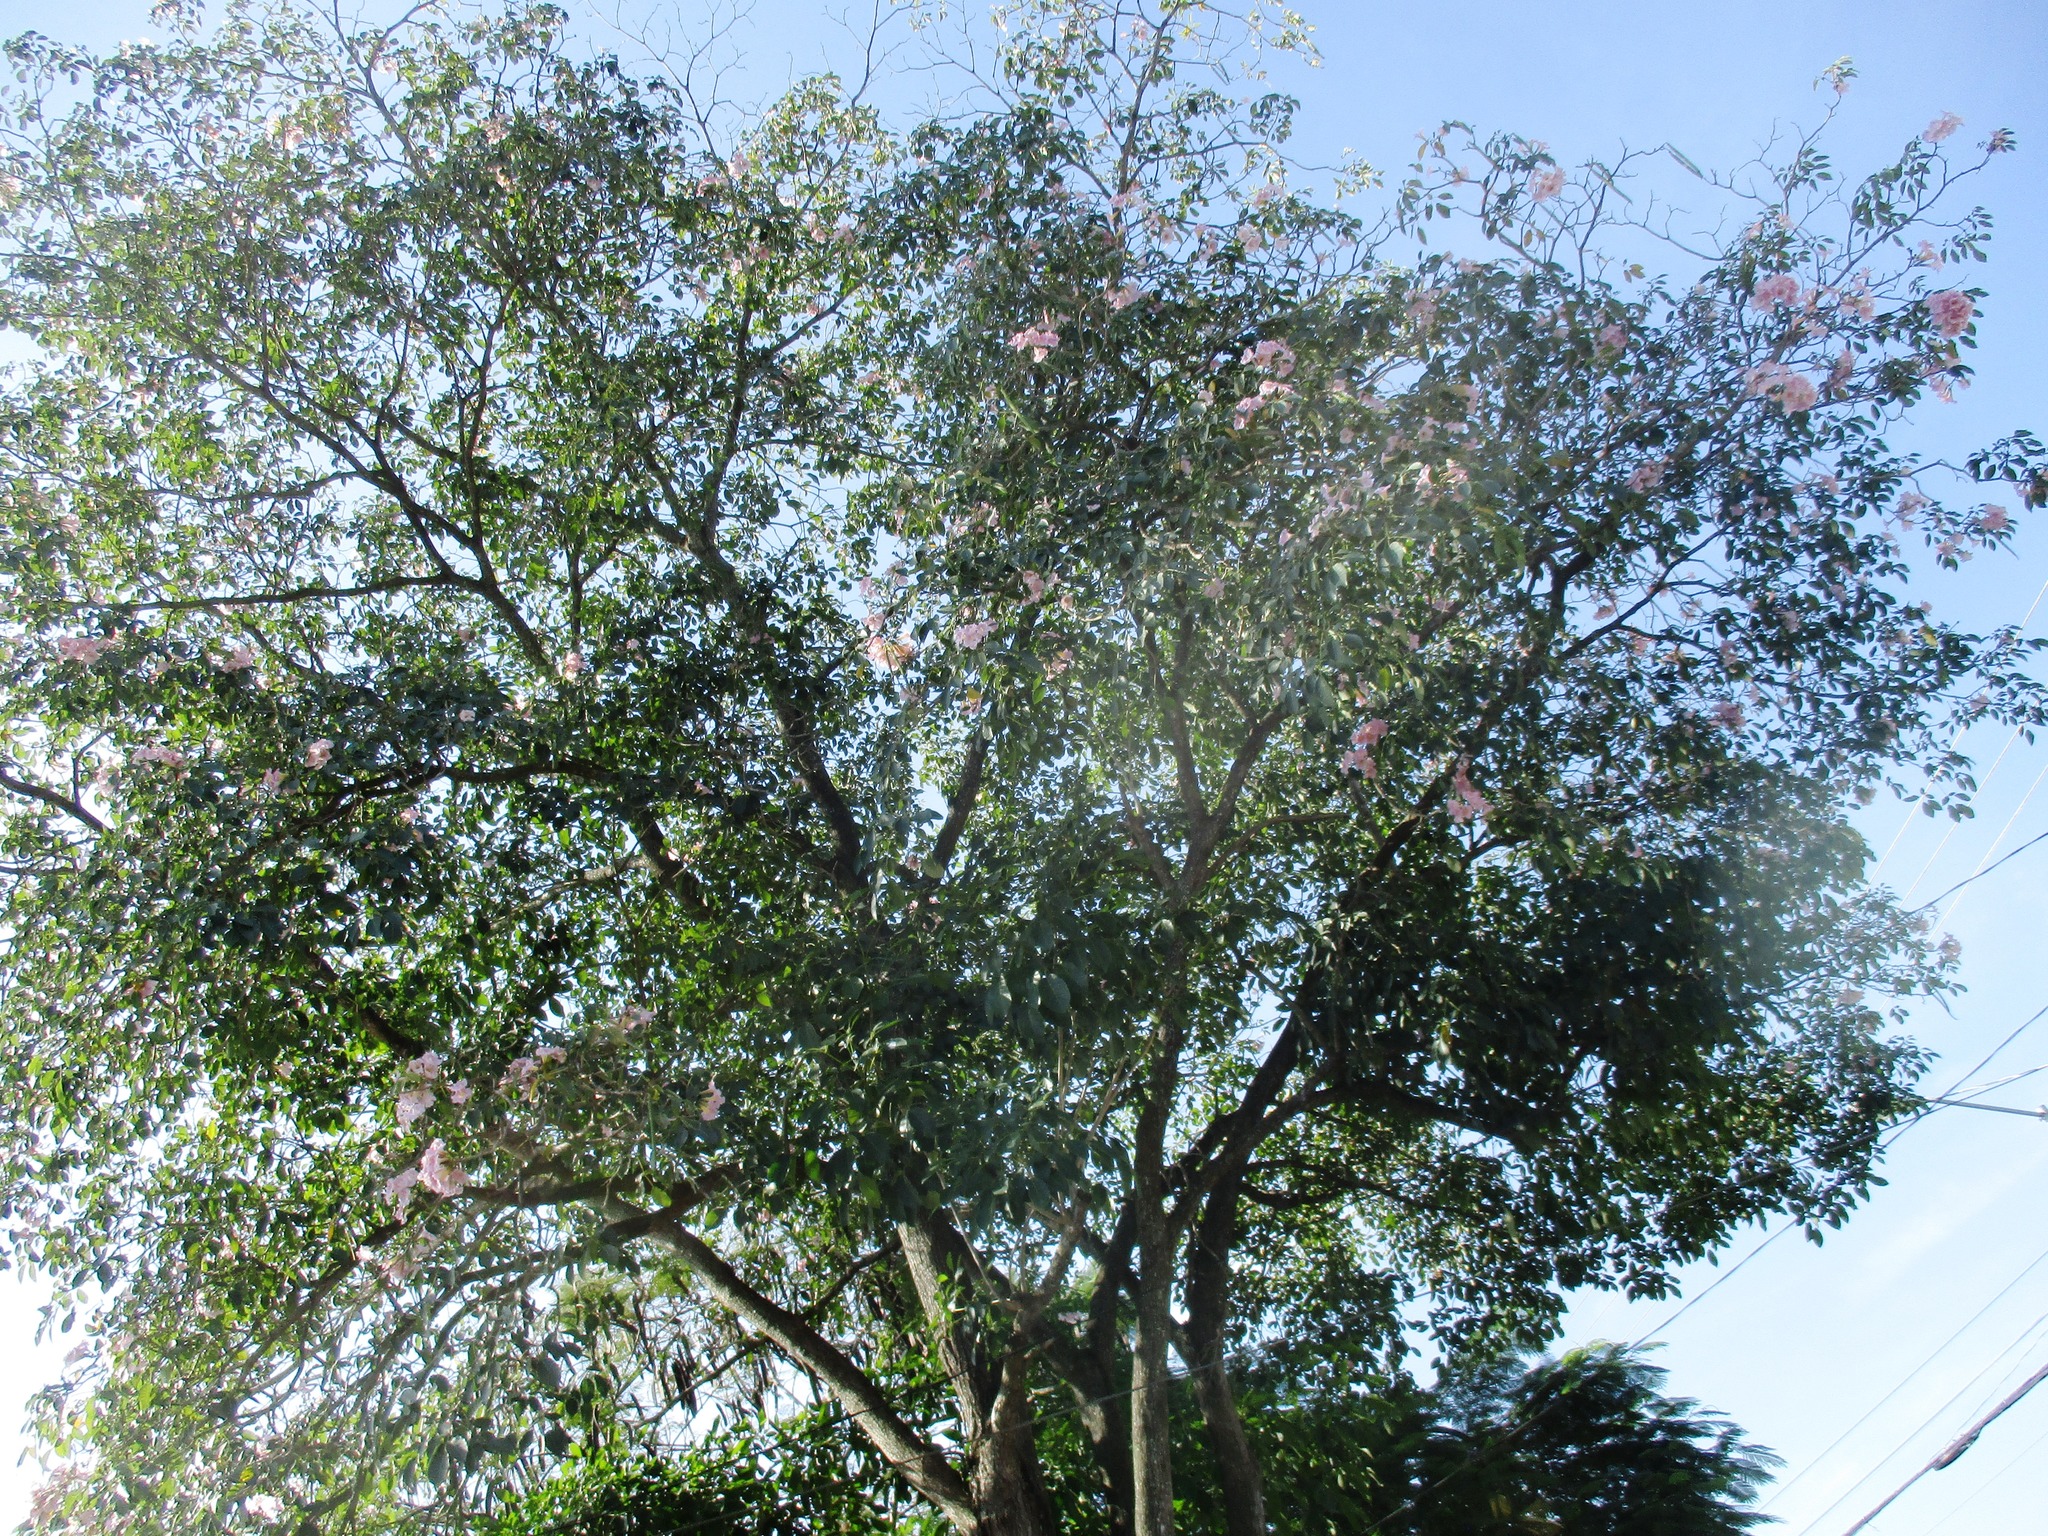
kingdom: Plantae
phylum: Tracheophyta
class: Magnoliopsida
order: Lamiales
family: Bignoniaceae
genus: Tabebuia
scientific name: Tabebuia rosea
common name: Pink poui
